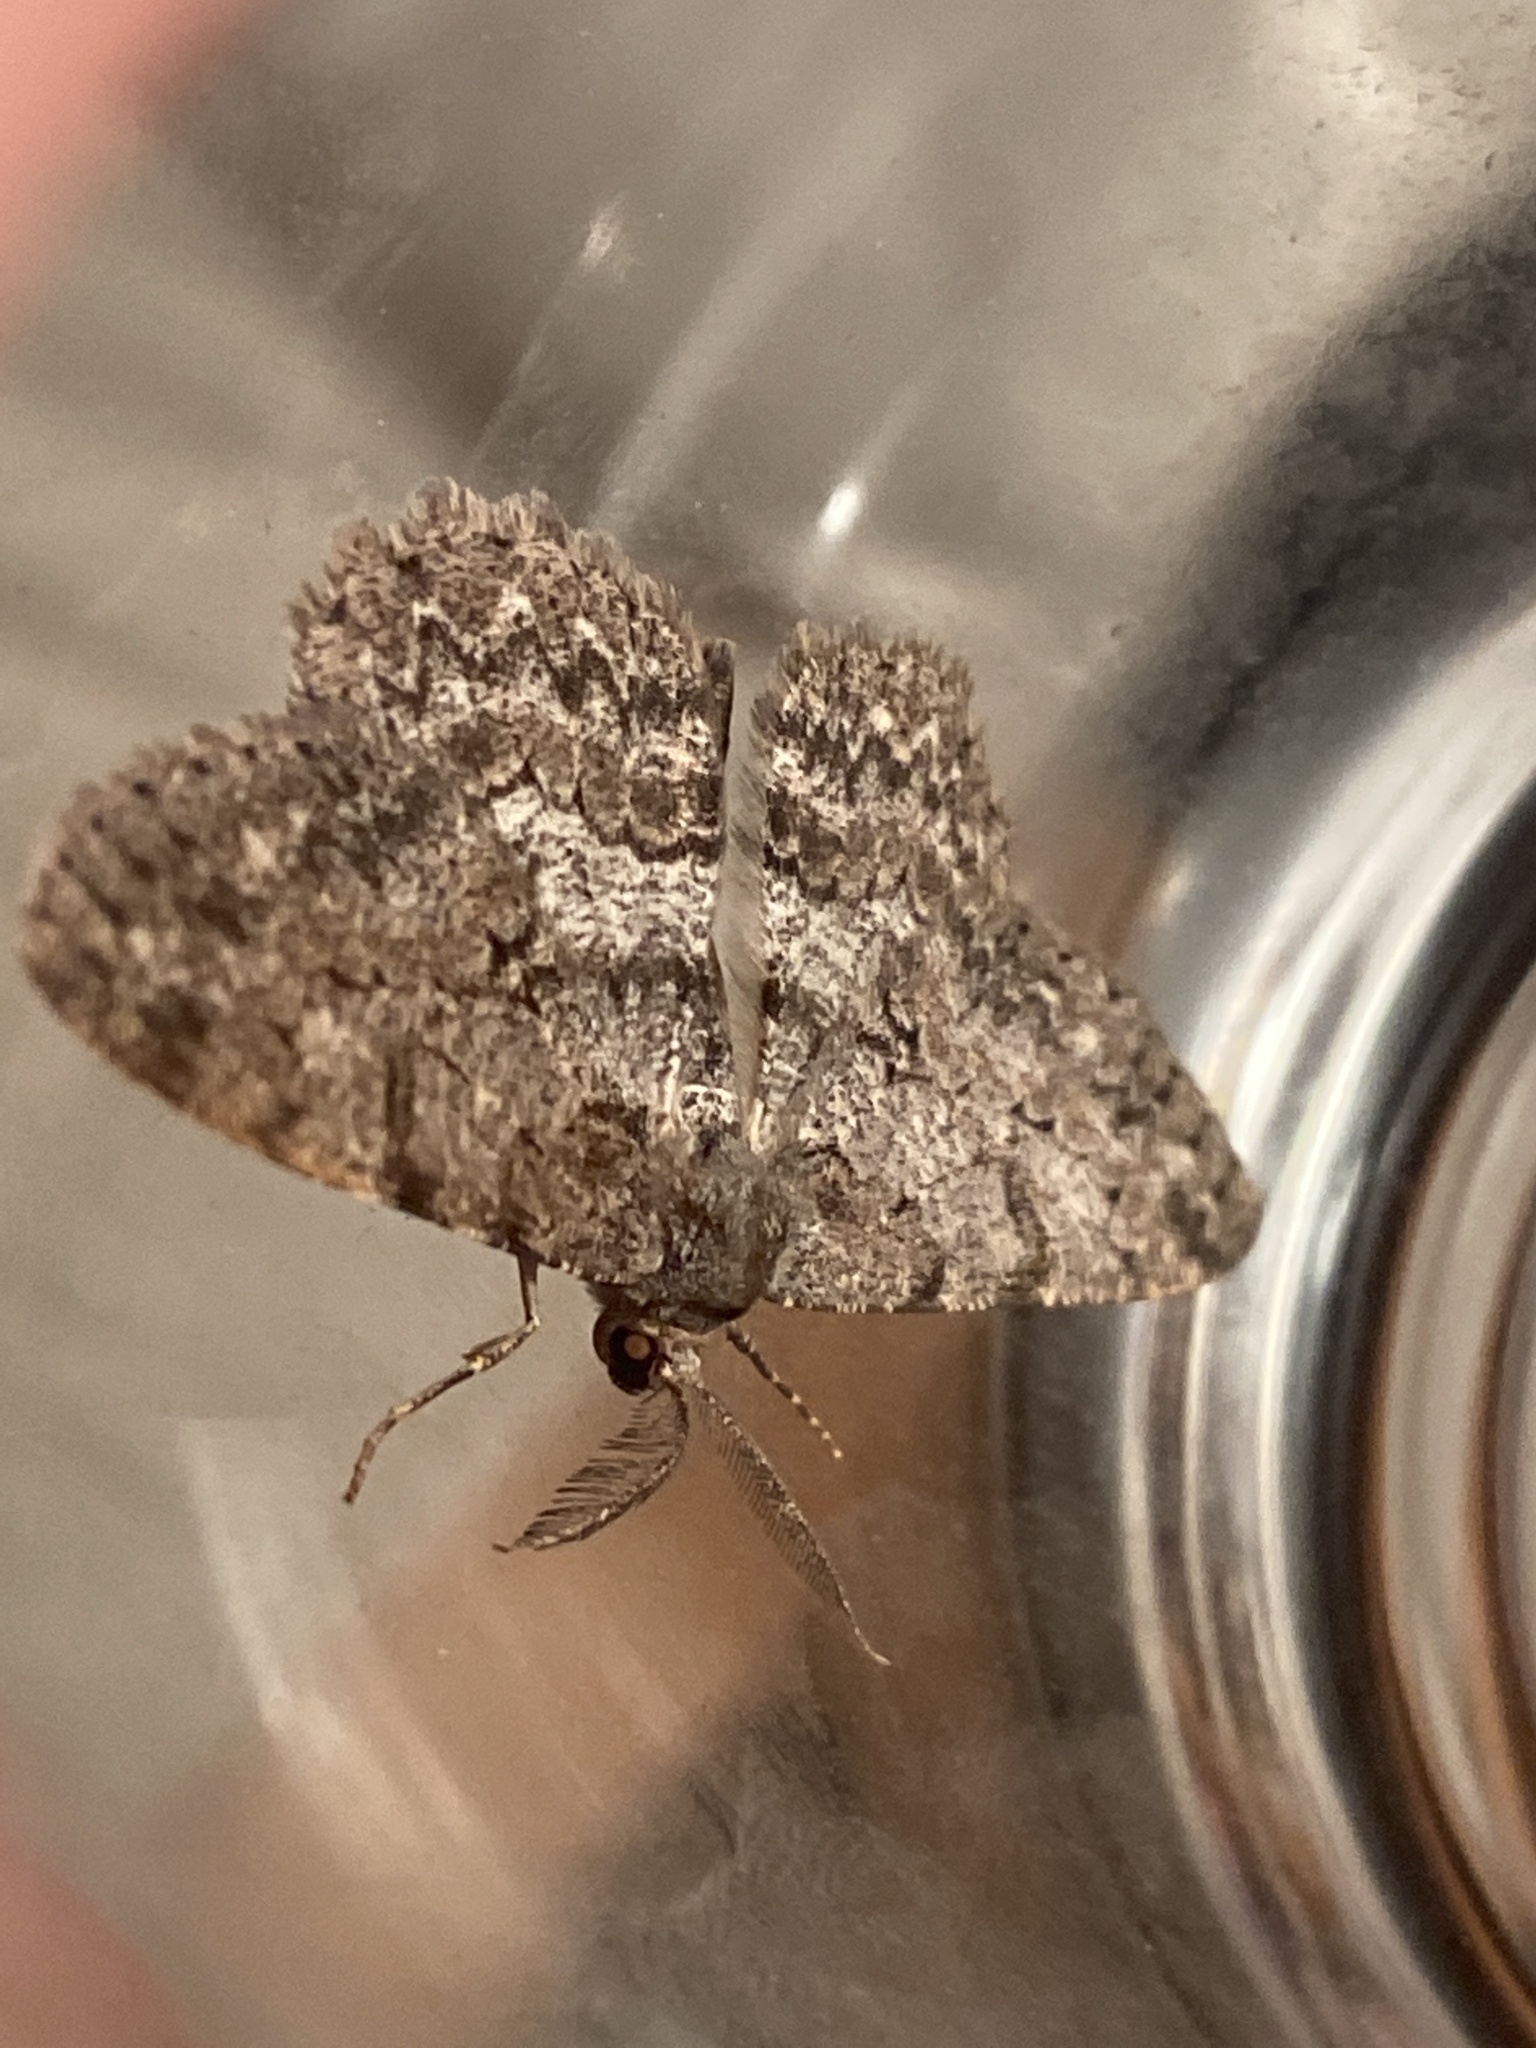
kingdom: Animalia
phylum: Arthropoda
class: Insecta
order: Lepidoptera
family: Geometridae
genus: Hypomecis
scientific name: Hypomecis punctinalis
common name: Pale oak beauty
